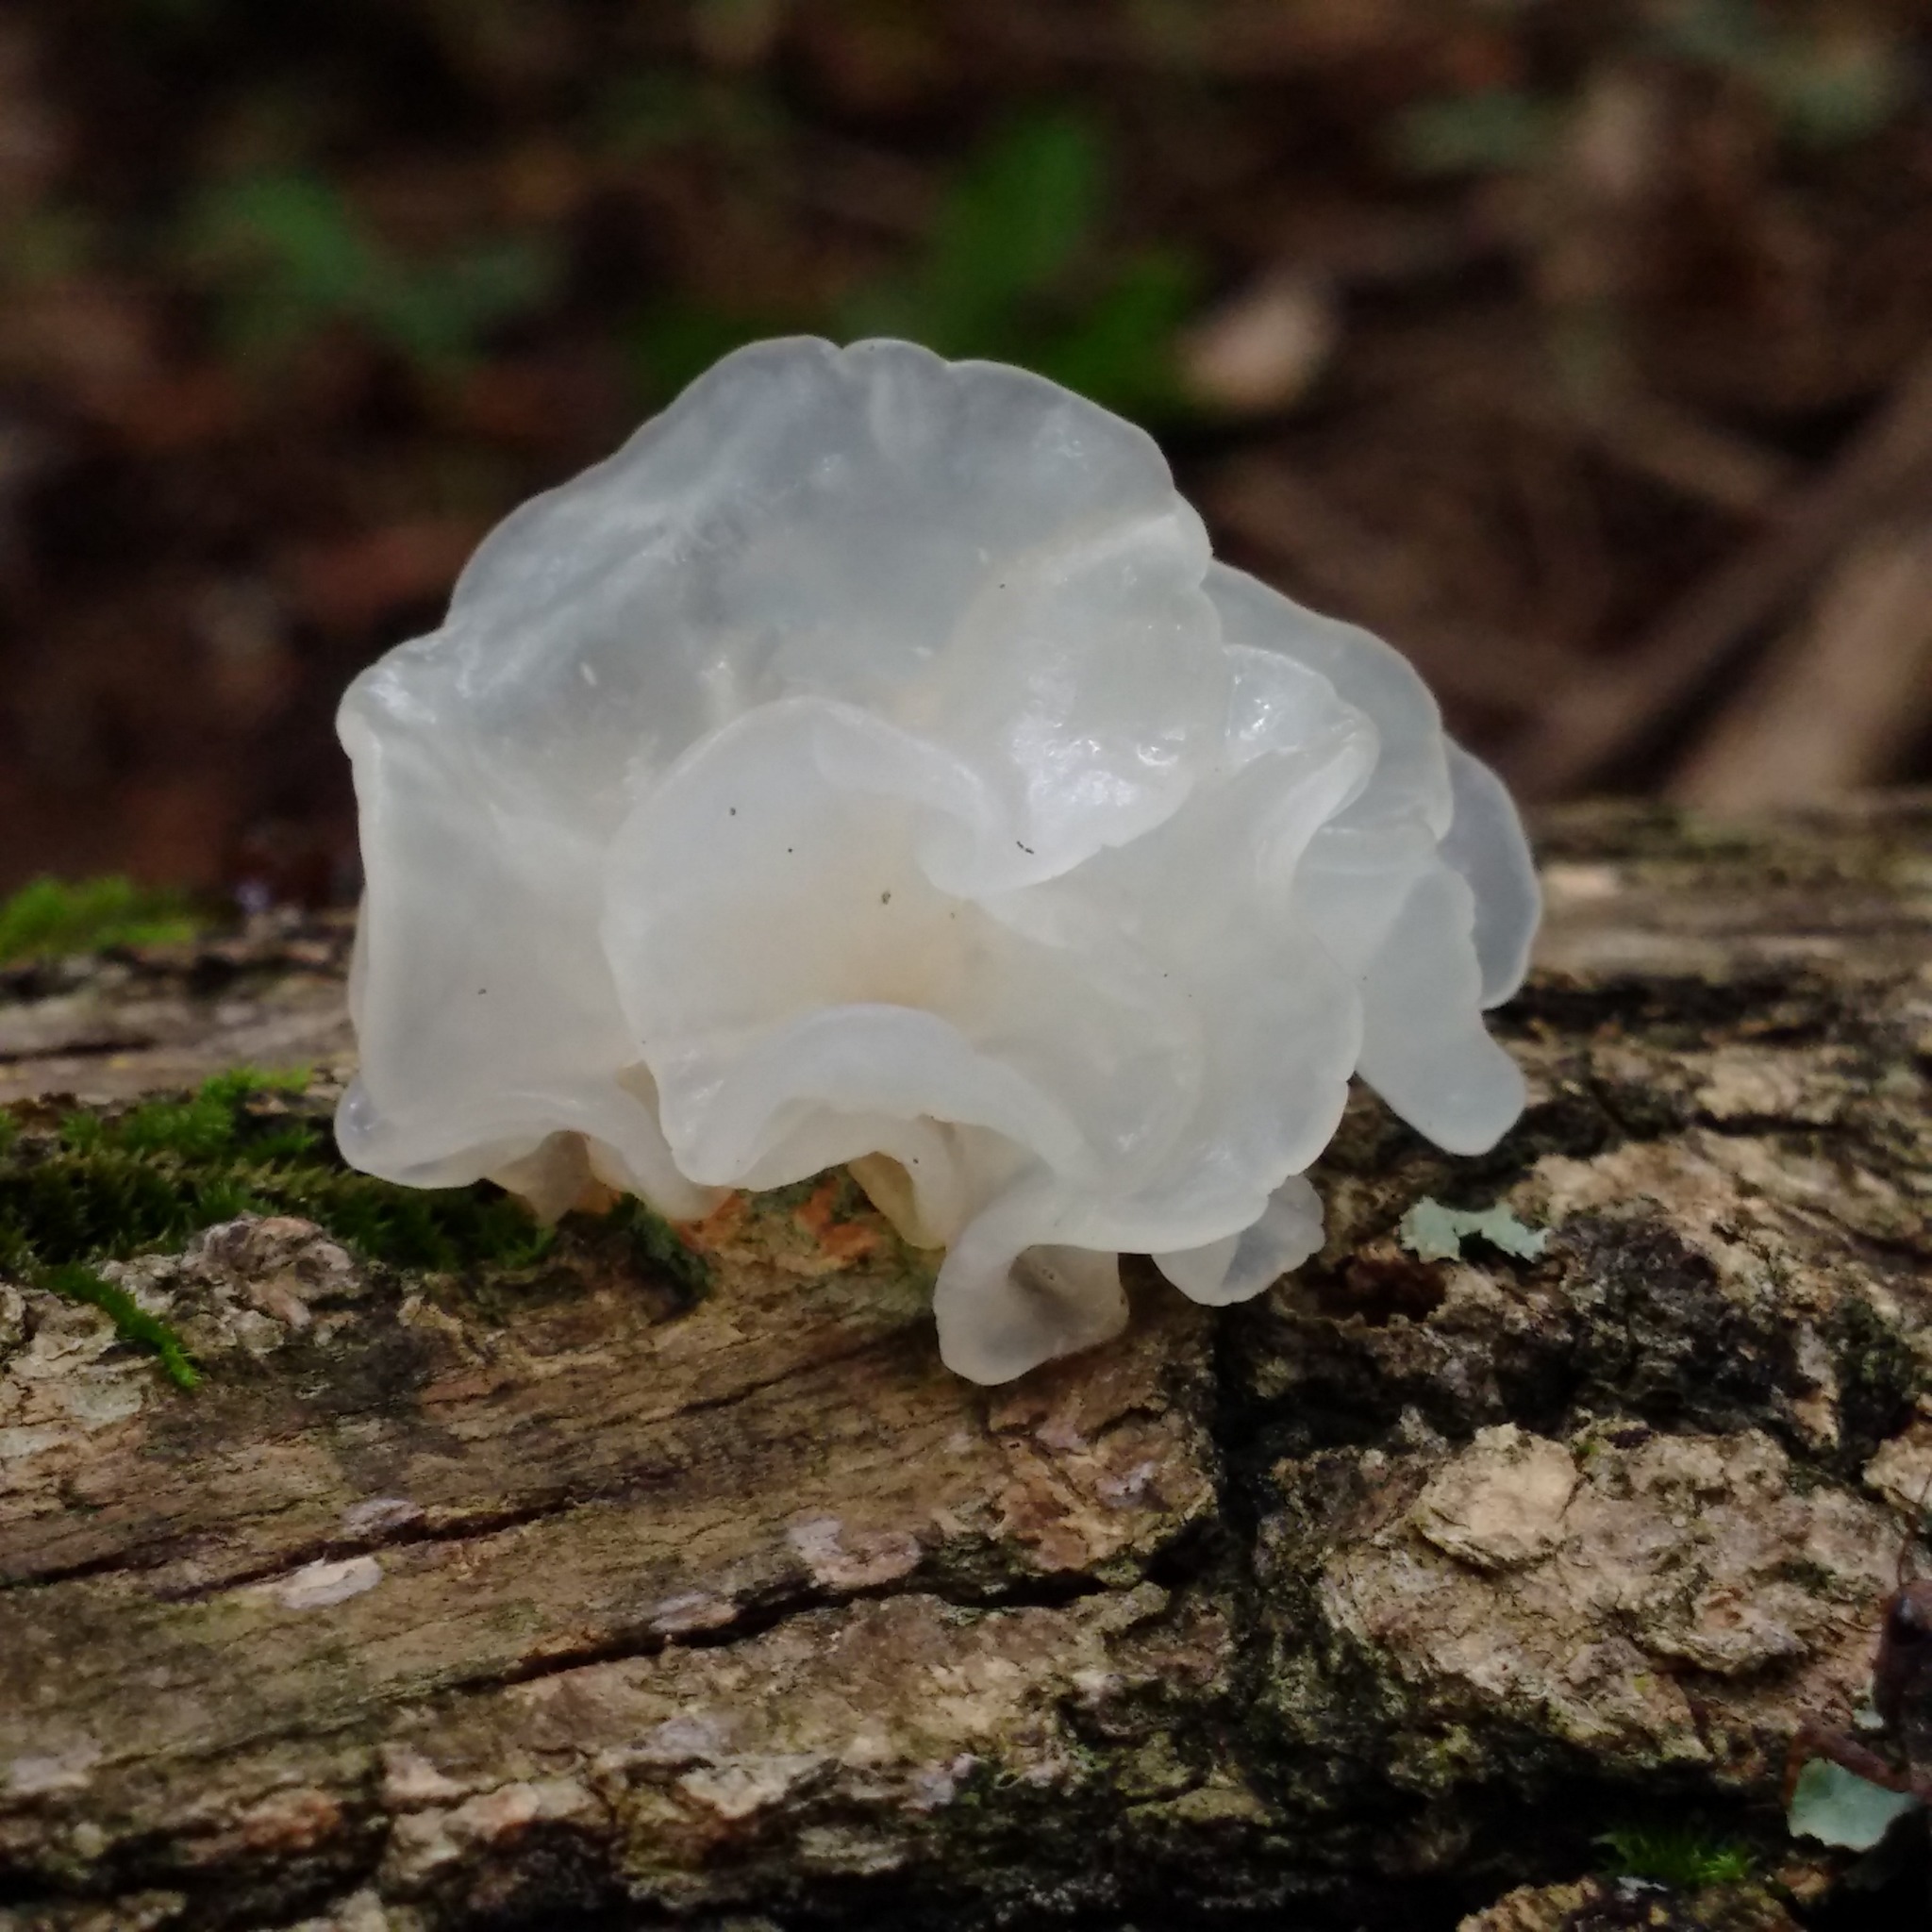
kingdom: Fungi
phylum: Basidiomycota
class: Tremellomycetes
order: Tremellales
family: Tremellaceae
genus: Tremella
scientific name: Tremella fuciformis
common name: Snow fungus
